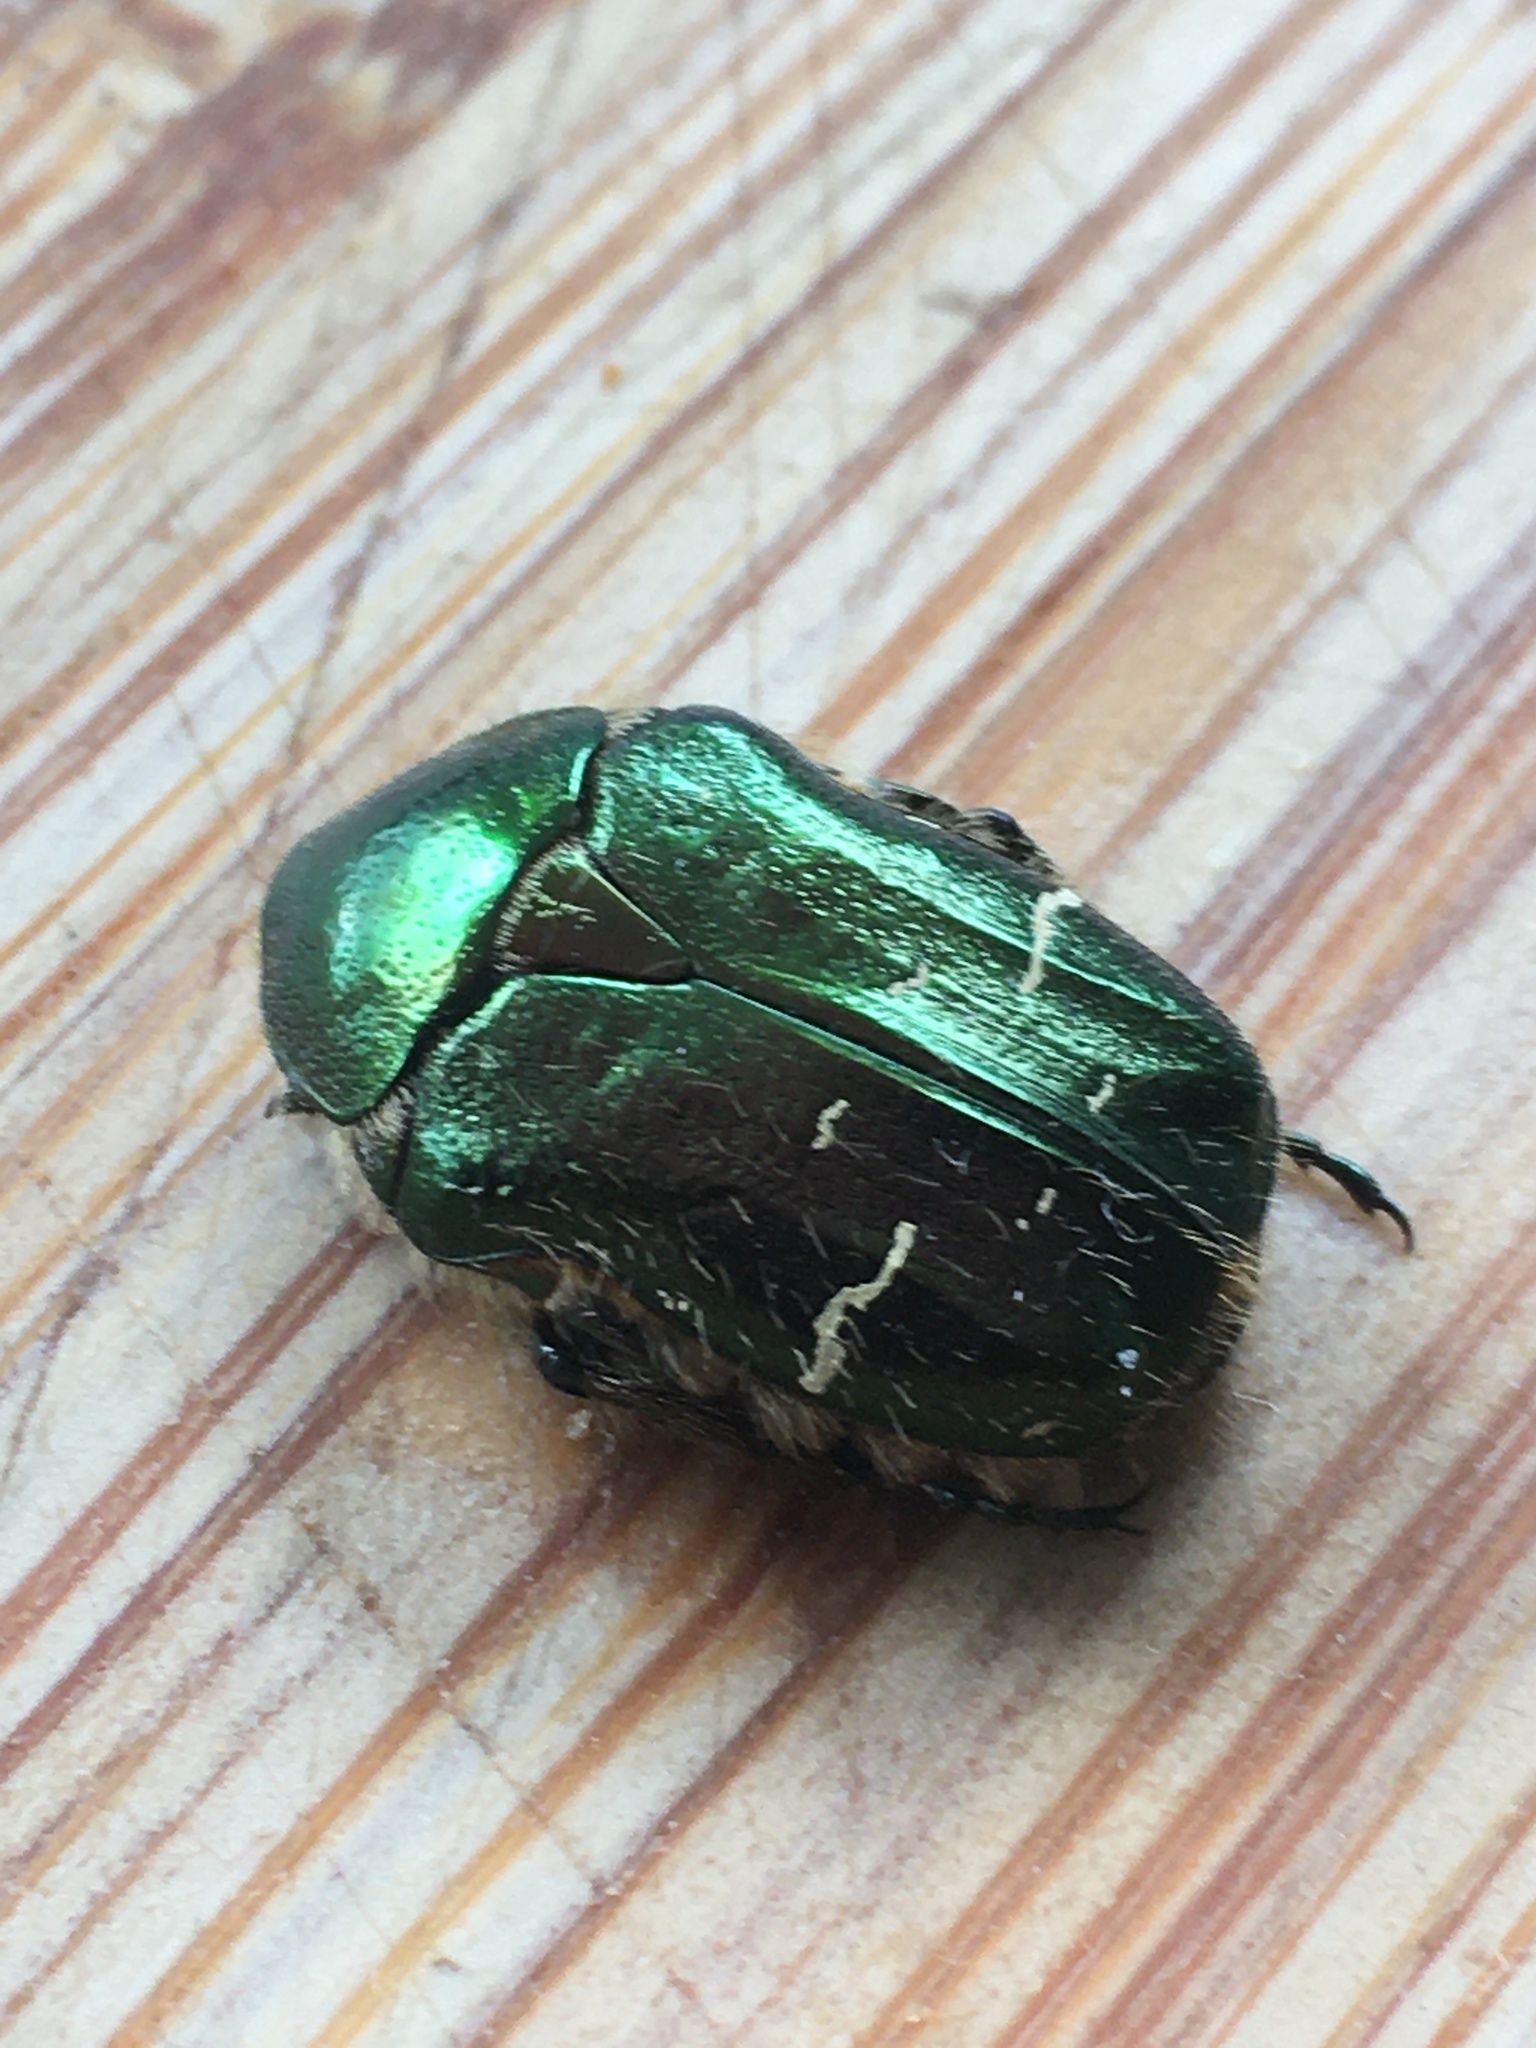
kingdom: Animalia
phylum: Arthropoda
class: Insecta
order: Coleoptera
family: Scarabaeidae
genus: Cetonia
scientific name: Cetonia aurata
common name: Rose chafer
